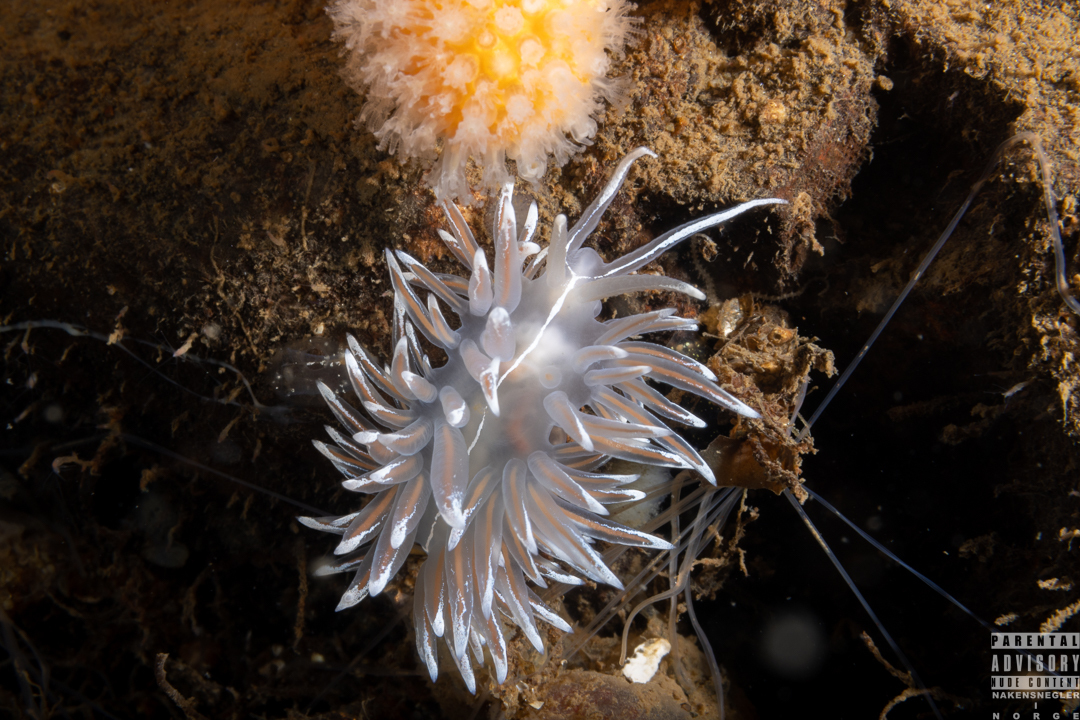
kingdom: Animalia
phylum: Mollusca
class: Gastropoda
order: Nudibranchia
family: Coryphellidae
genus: Coryphella
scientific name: Coryphella lineata
